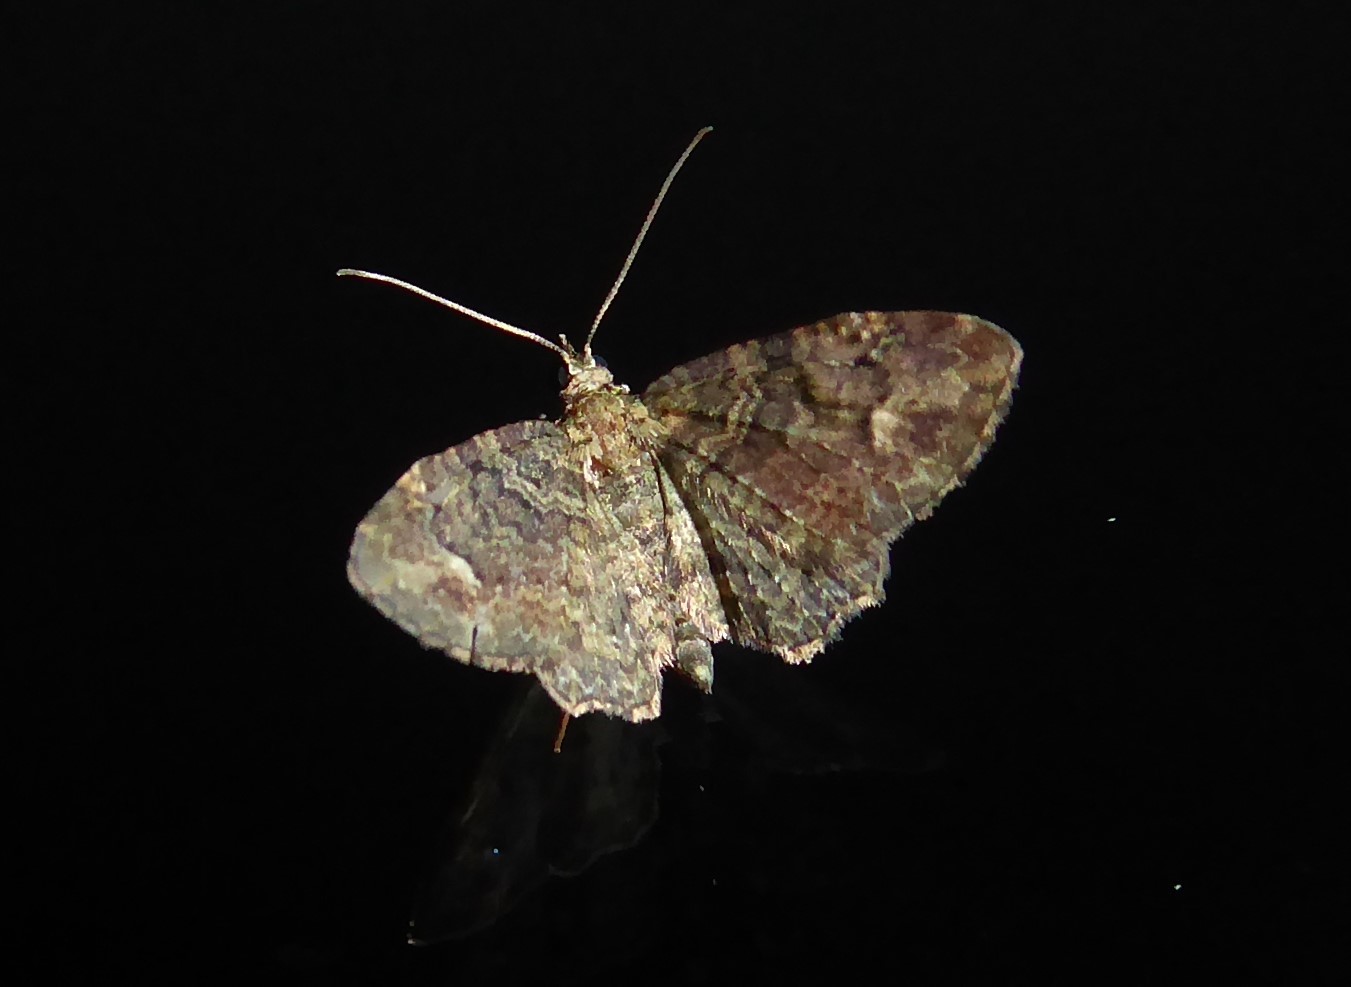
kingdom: Animalia
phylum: Arthropoda
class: Insecta
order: Lepidoptera
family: Geometridae
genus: Pasiphilodes
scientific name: Pasiphilodes testulata
